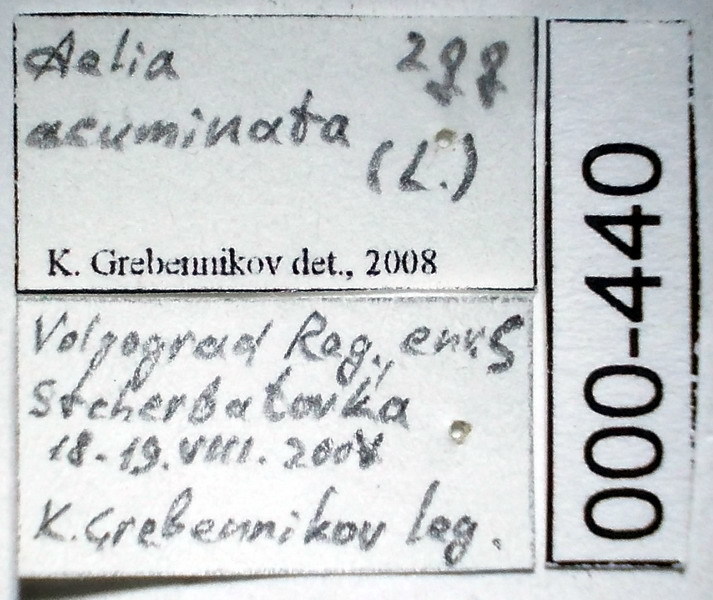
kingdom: Animalia
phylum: Arthropoda
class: Insecta
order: Hemiptera
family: Pentatomidae
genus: Aelia
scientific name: Aelia acuminata
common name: Bishop's mitre
